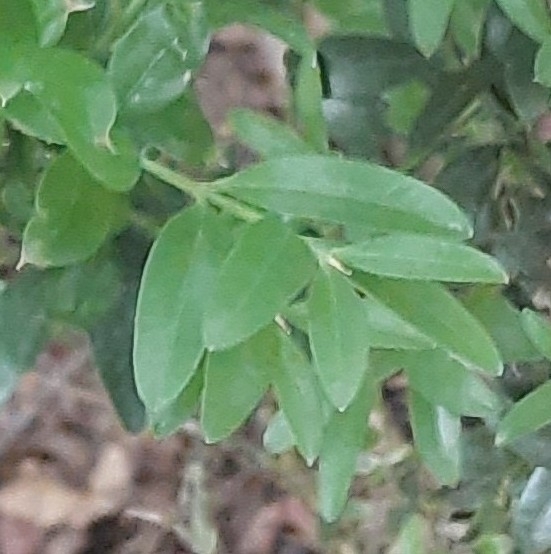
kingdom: Plantae
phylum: Tracheophyta
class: Magnoliopsida
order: Buxales
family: Buxaceae
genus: Buxus
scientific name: Buxus sempervirens
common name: Box
